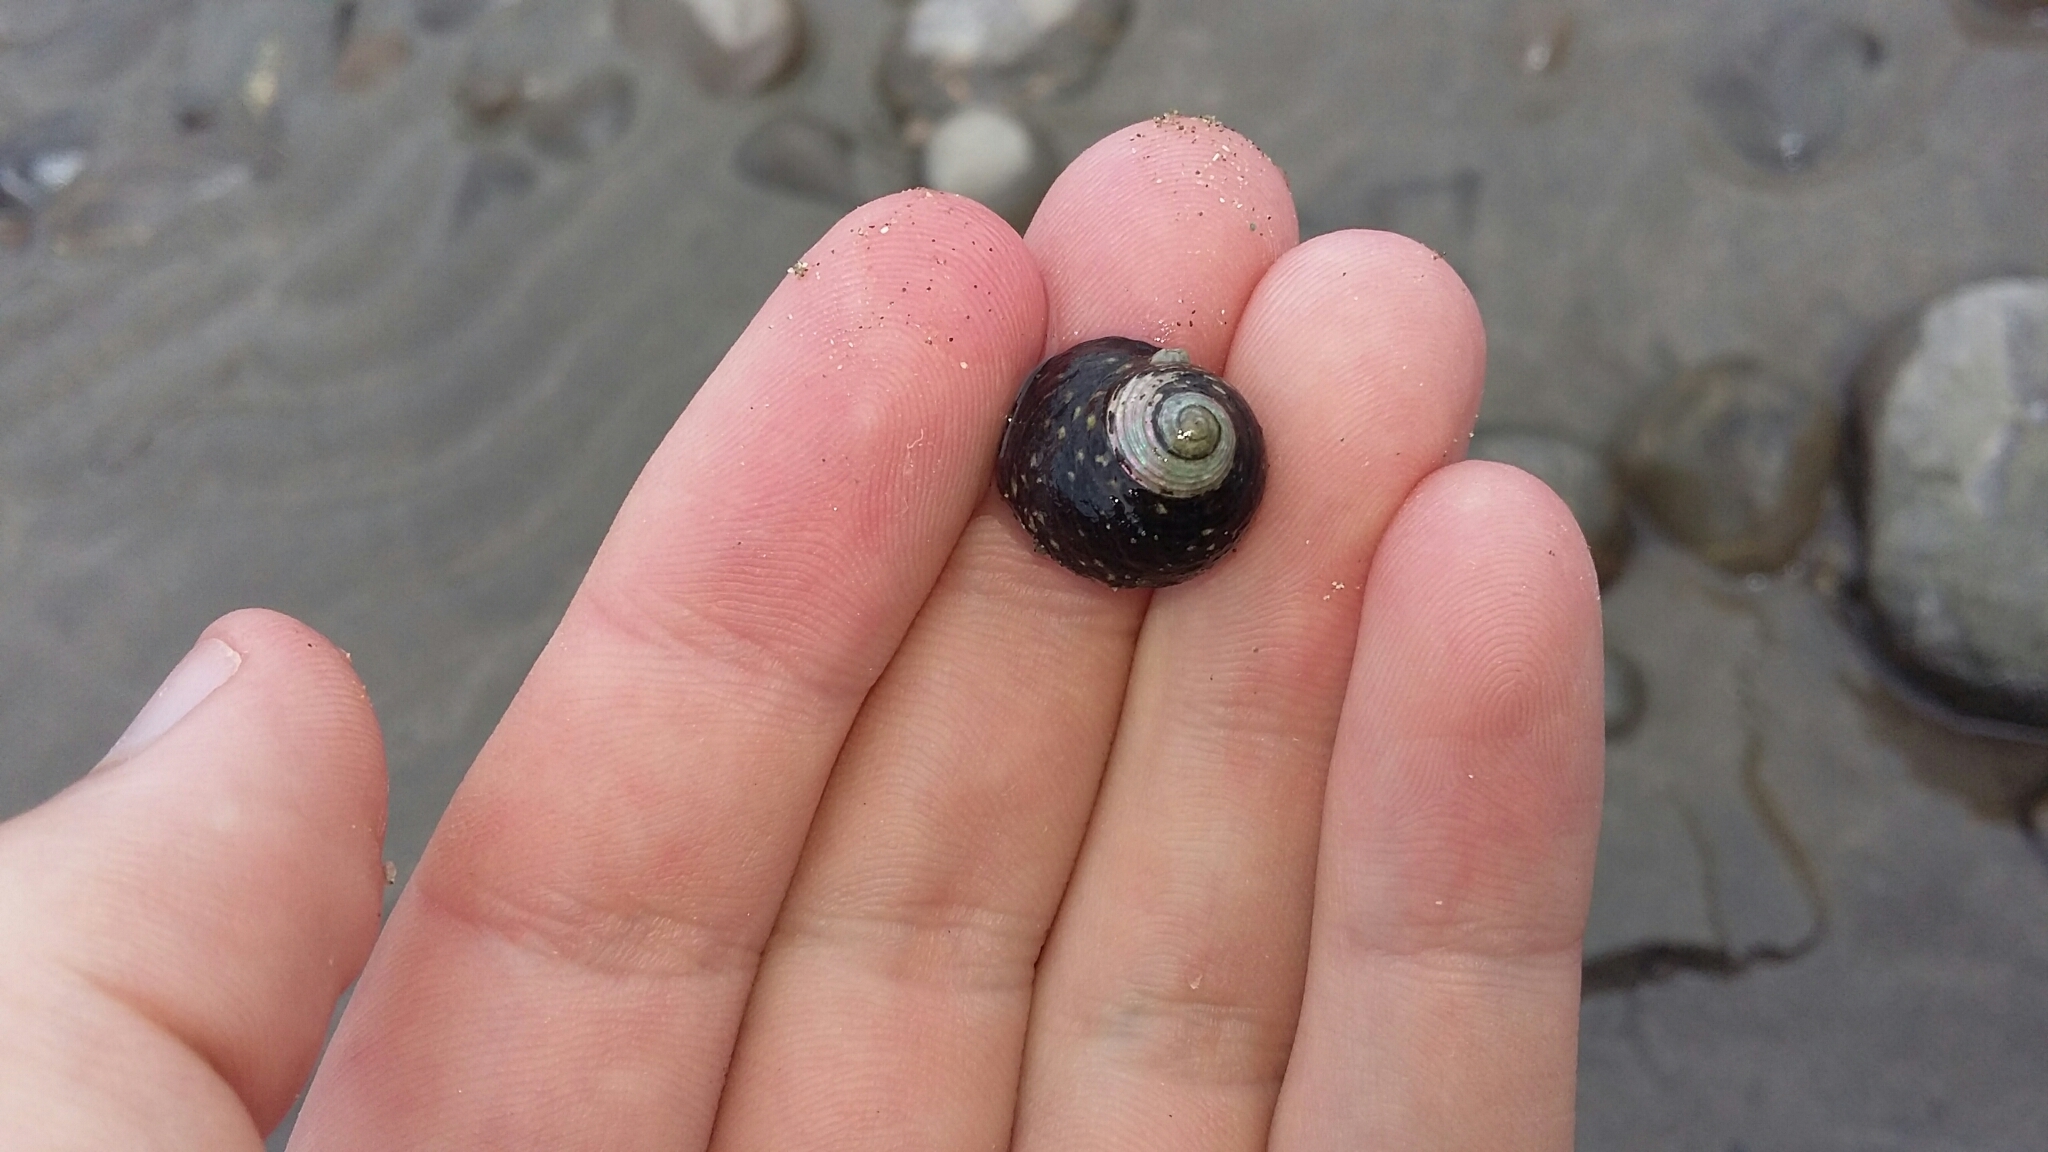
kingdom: Animalia
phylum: Mollusca
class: Gastropoda
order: Trochida
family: Trochidae
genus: Diloma
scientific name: Diloma zelandicum
